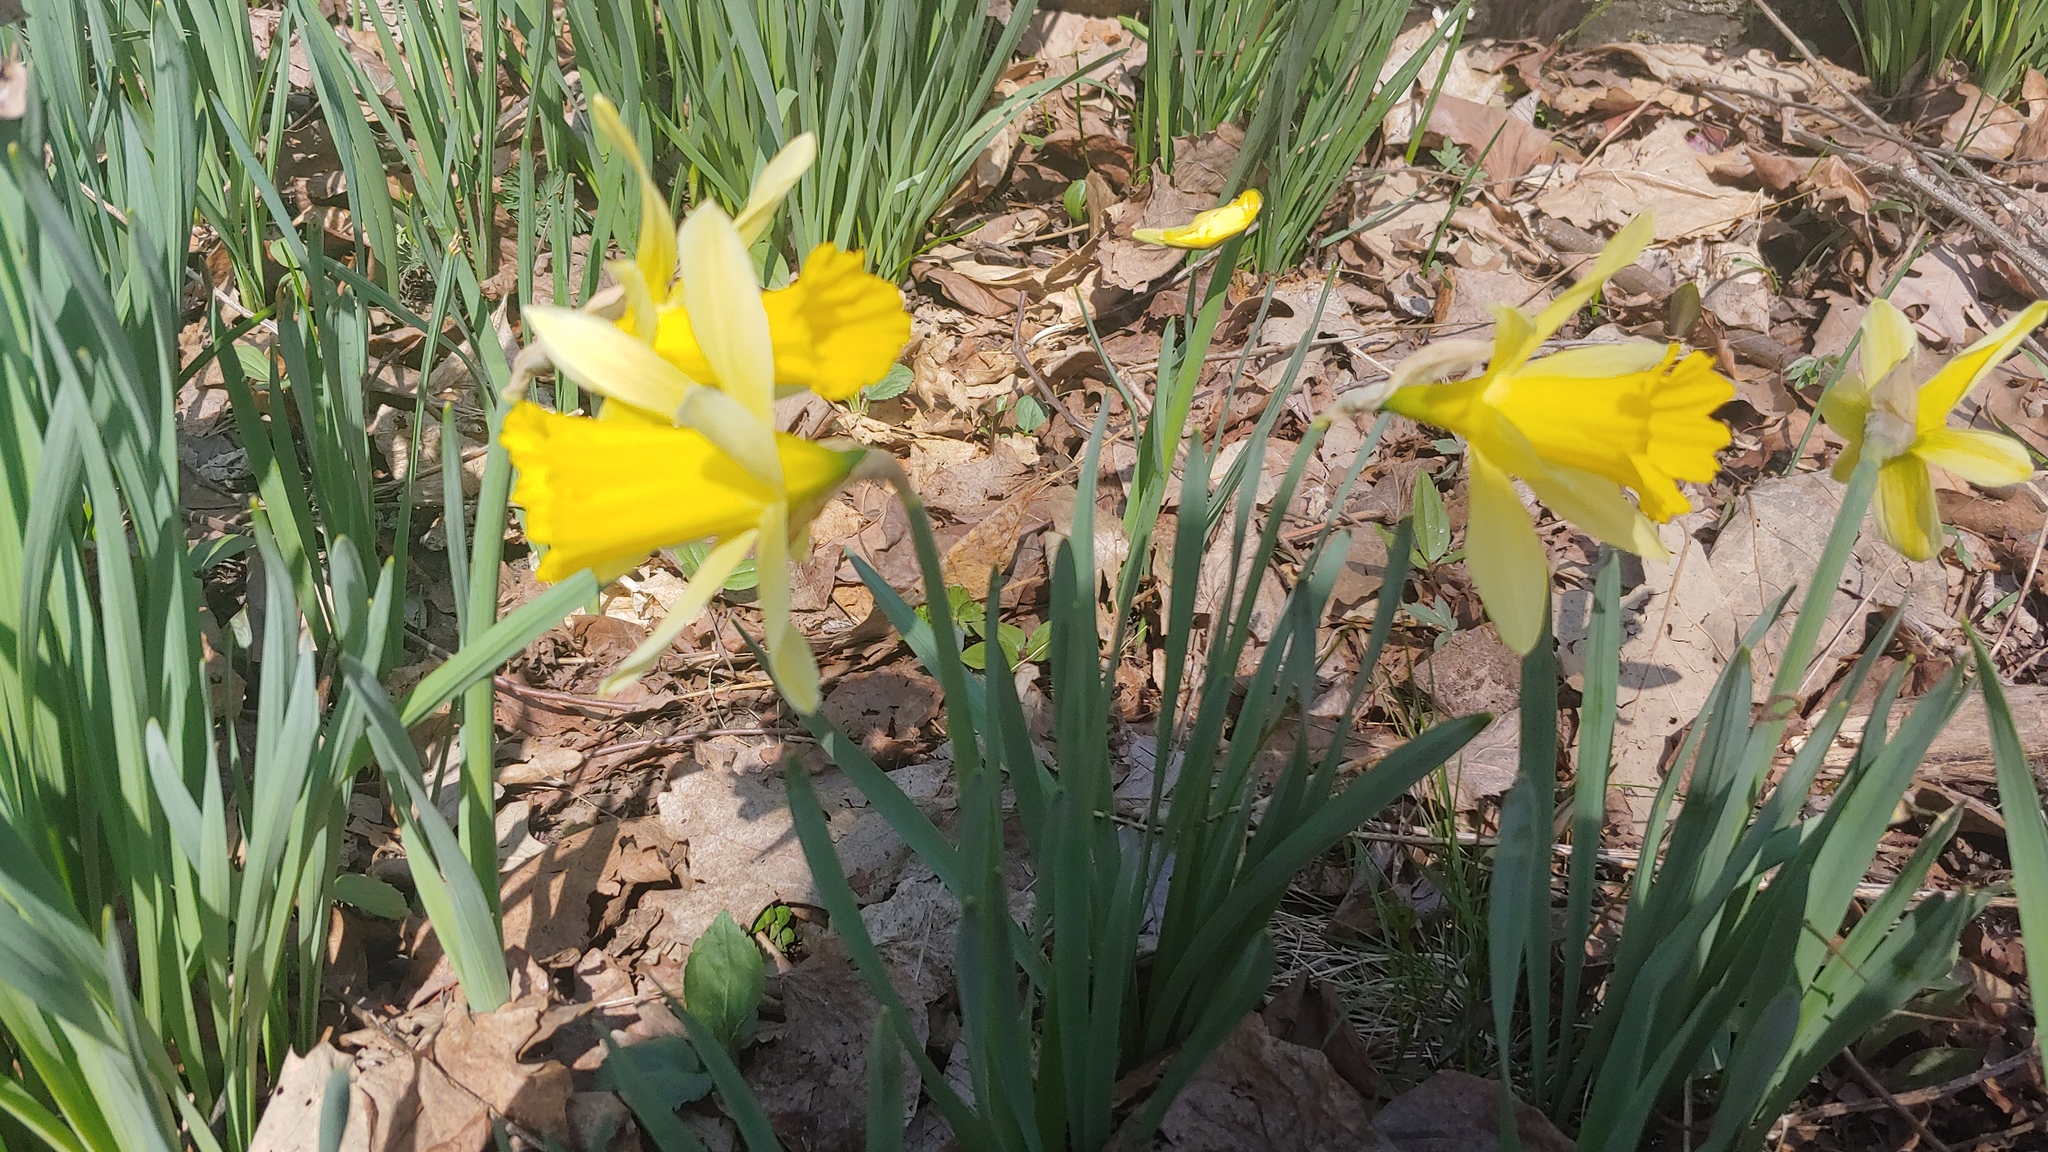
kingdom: Plantae
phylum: Tracheophyta
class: Liliopsida
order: Asparagales
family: Amaryllidaceae
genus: Narcissus
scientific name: Narcissus pseudonarcissus
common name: Daffodil
